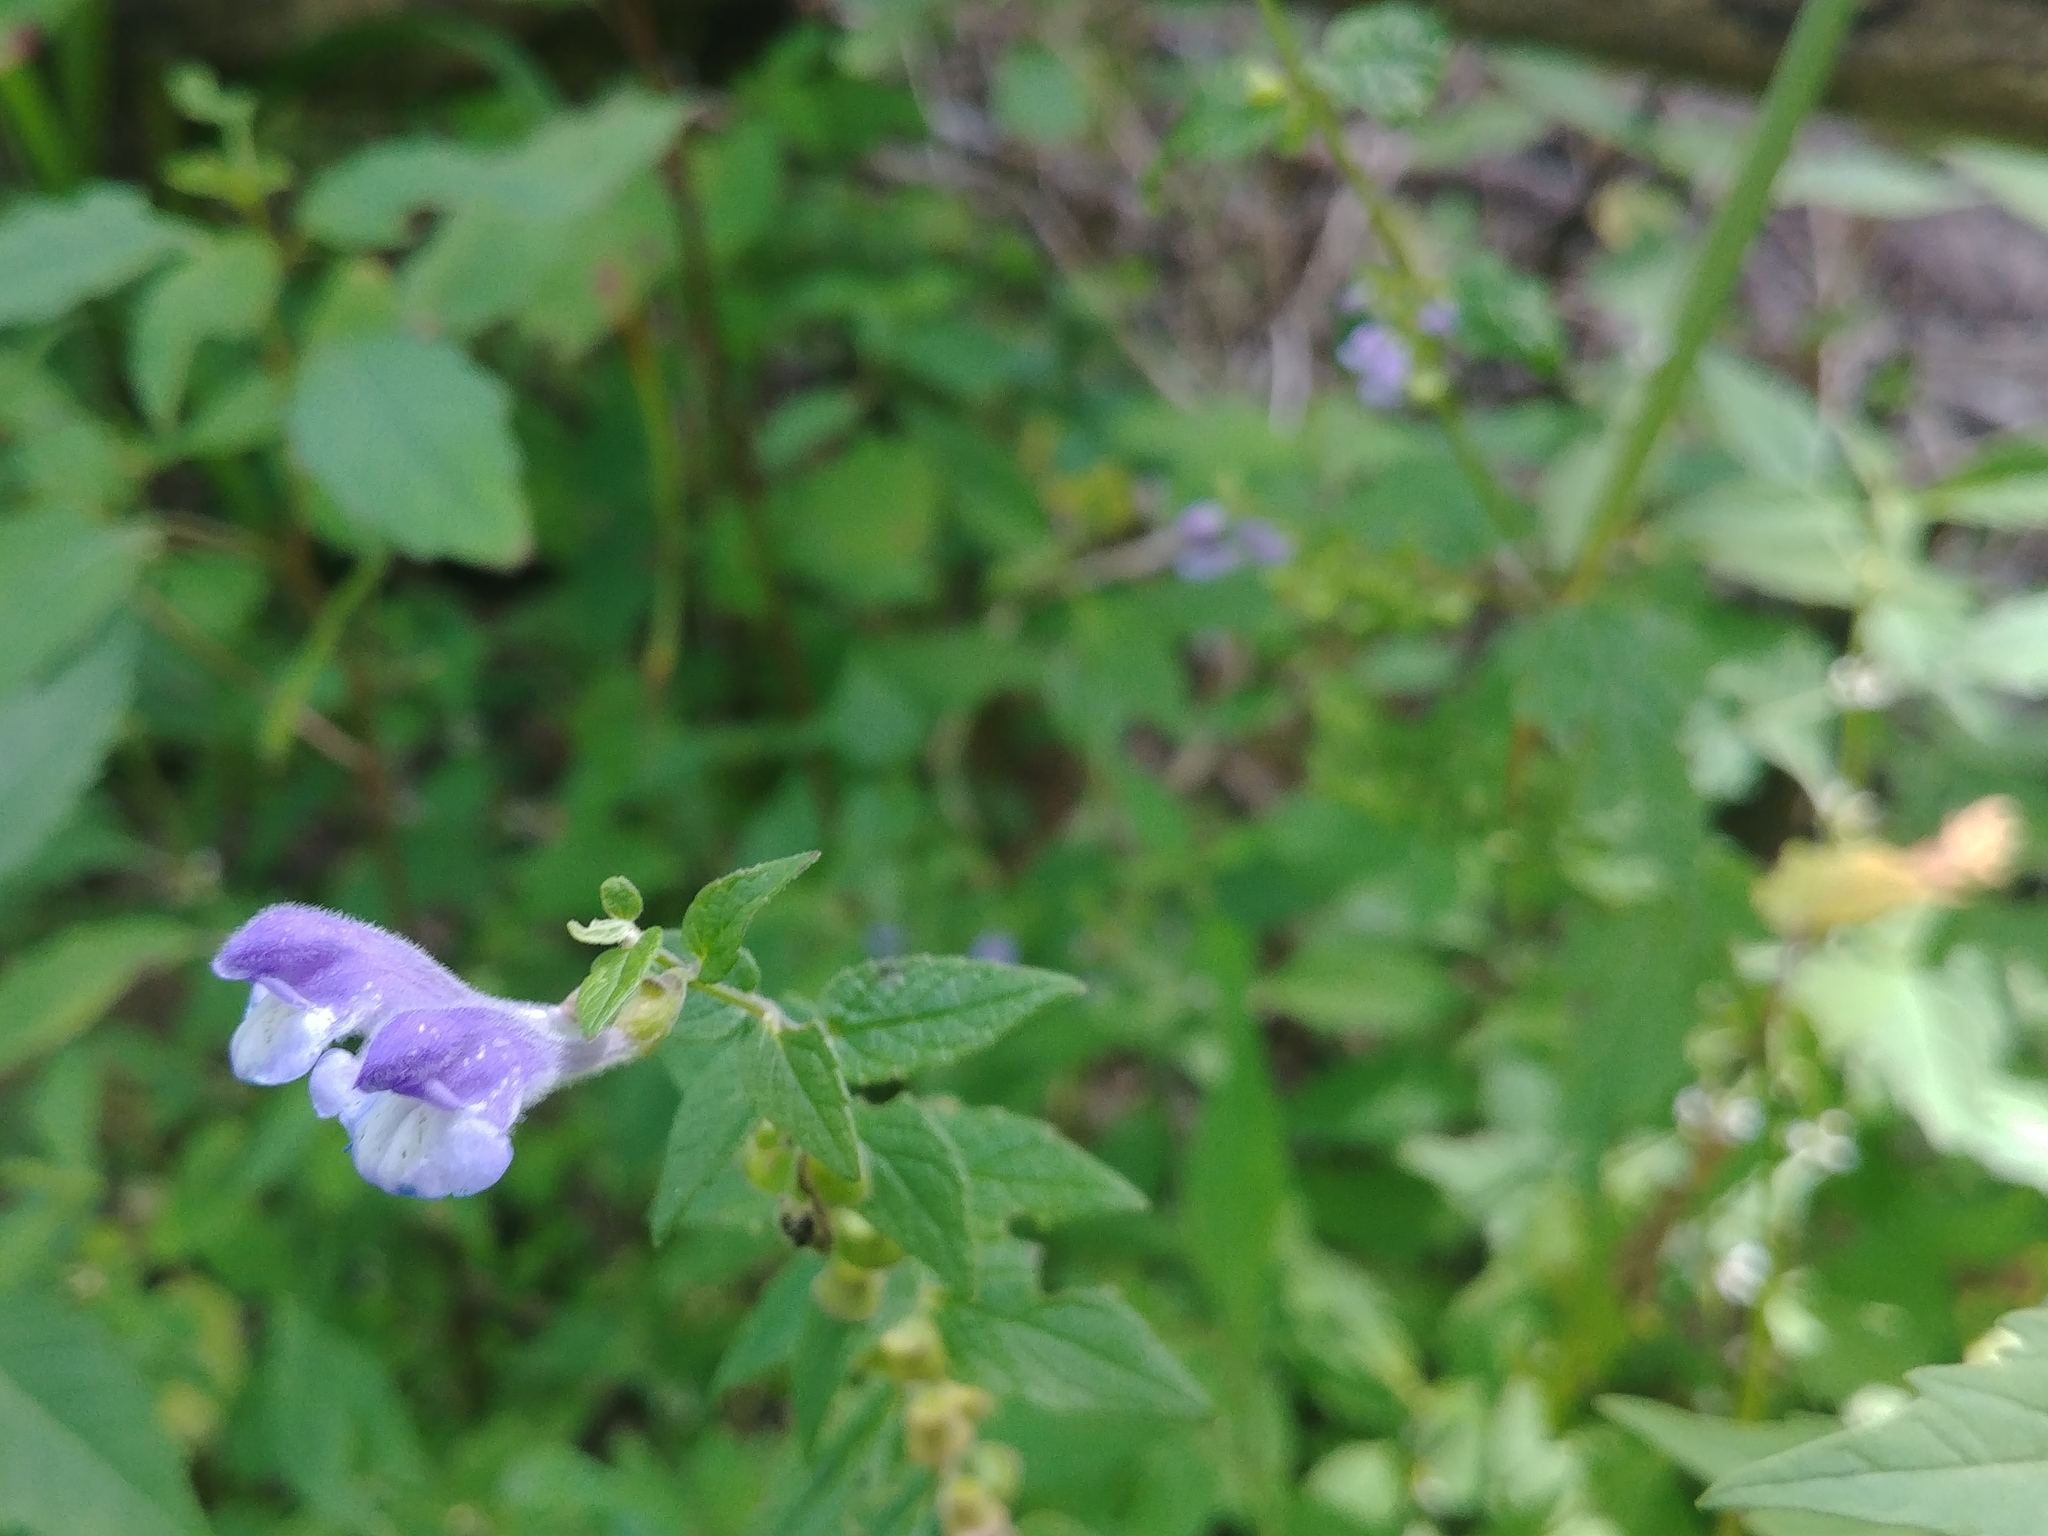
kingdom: Plantae
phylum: Tracheophyta
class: Magnoliopsida
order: Lamiales
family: Lamiaceae
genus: Scutellaria
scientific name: Scutellaria galericulata
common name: Skullcap
